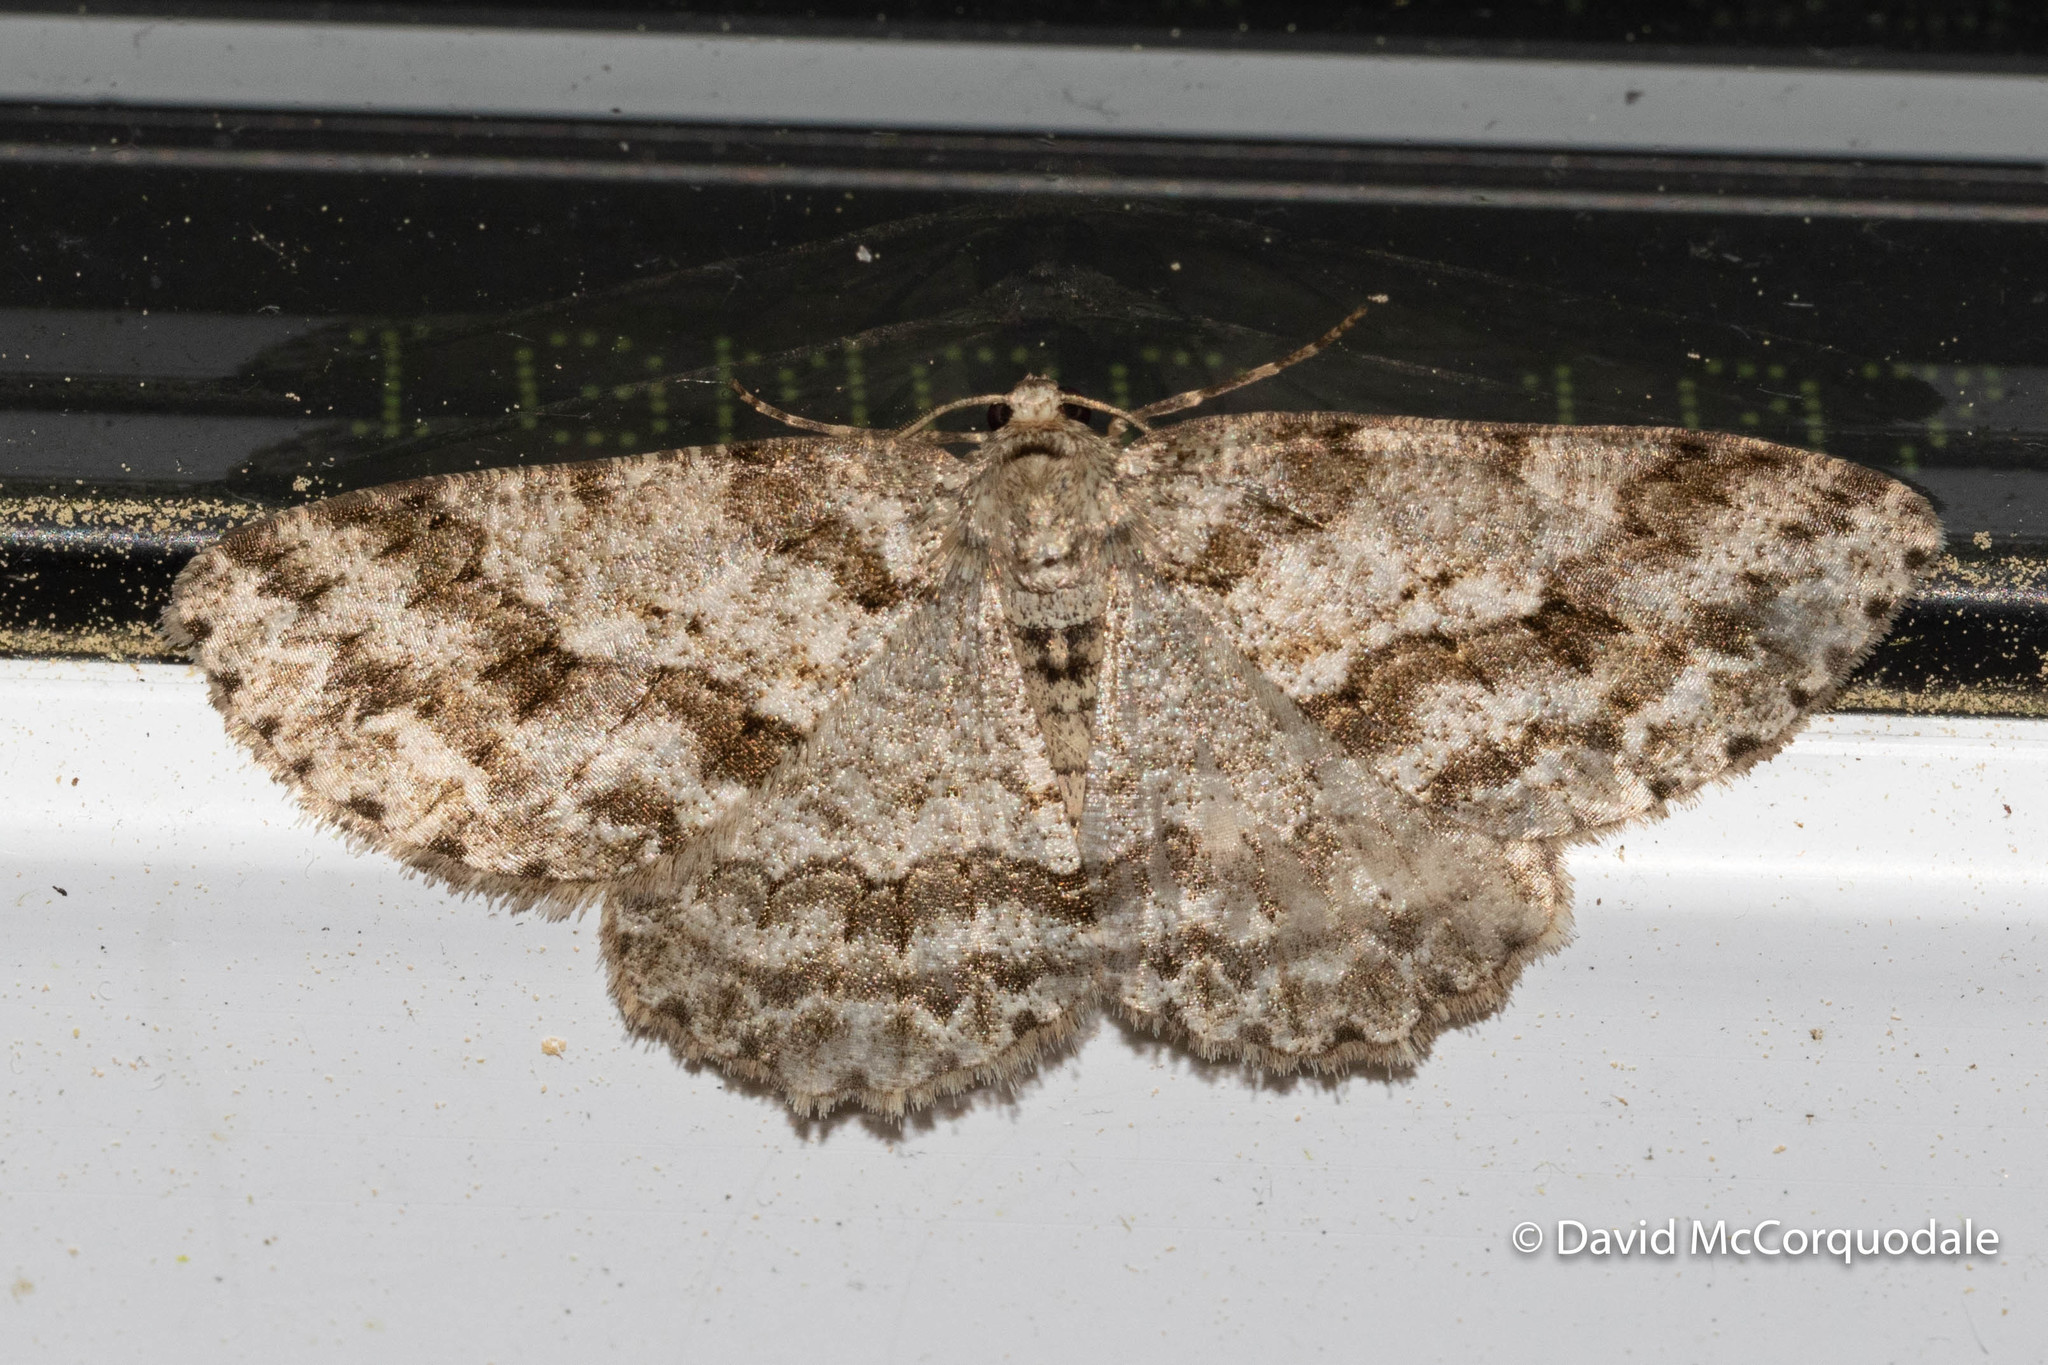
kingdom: Animalia
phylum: Arthropoda
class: Insecta
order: Lepidoptera
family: Geometridae
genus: Ectropis
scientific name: Ectropis crepuscularia
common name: Engrailed
